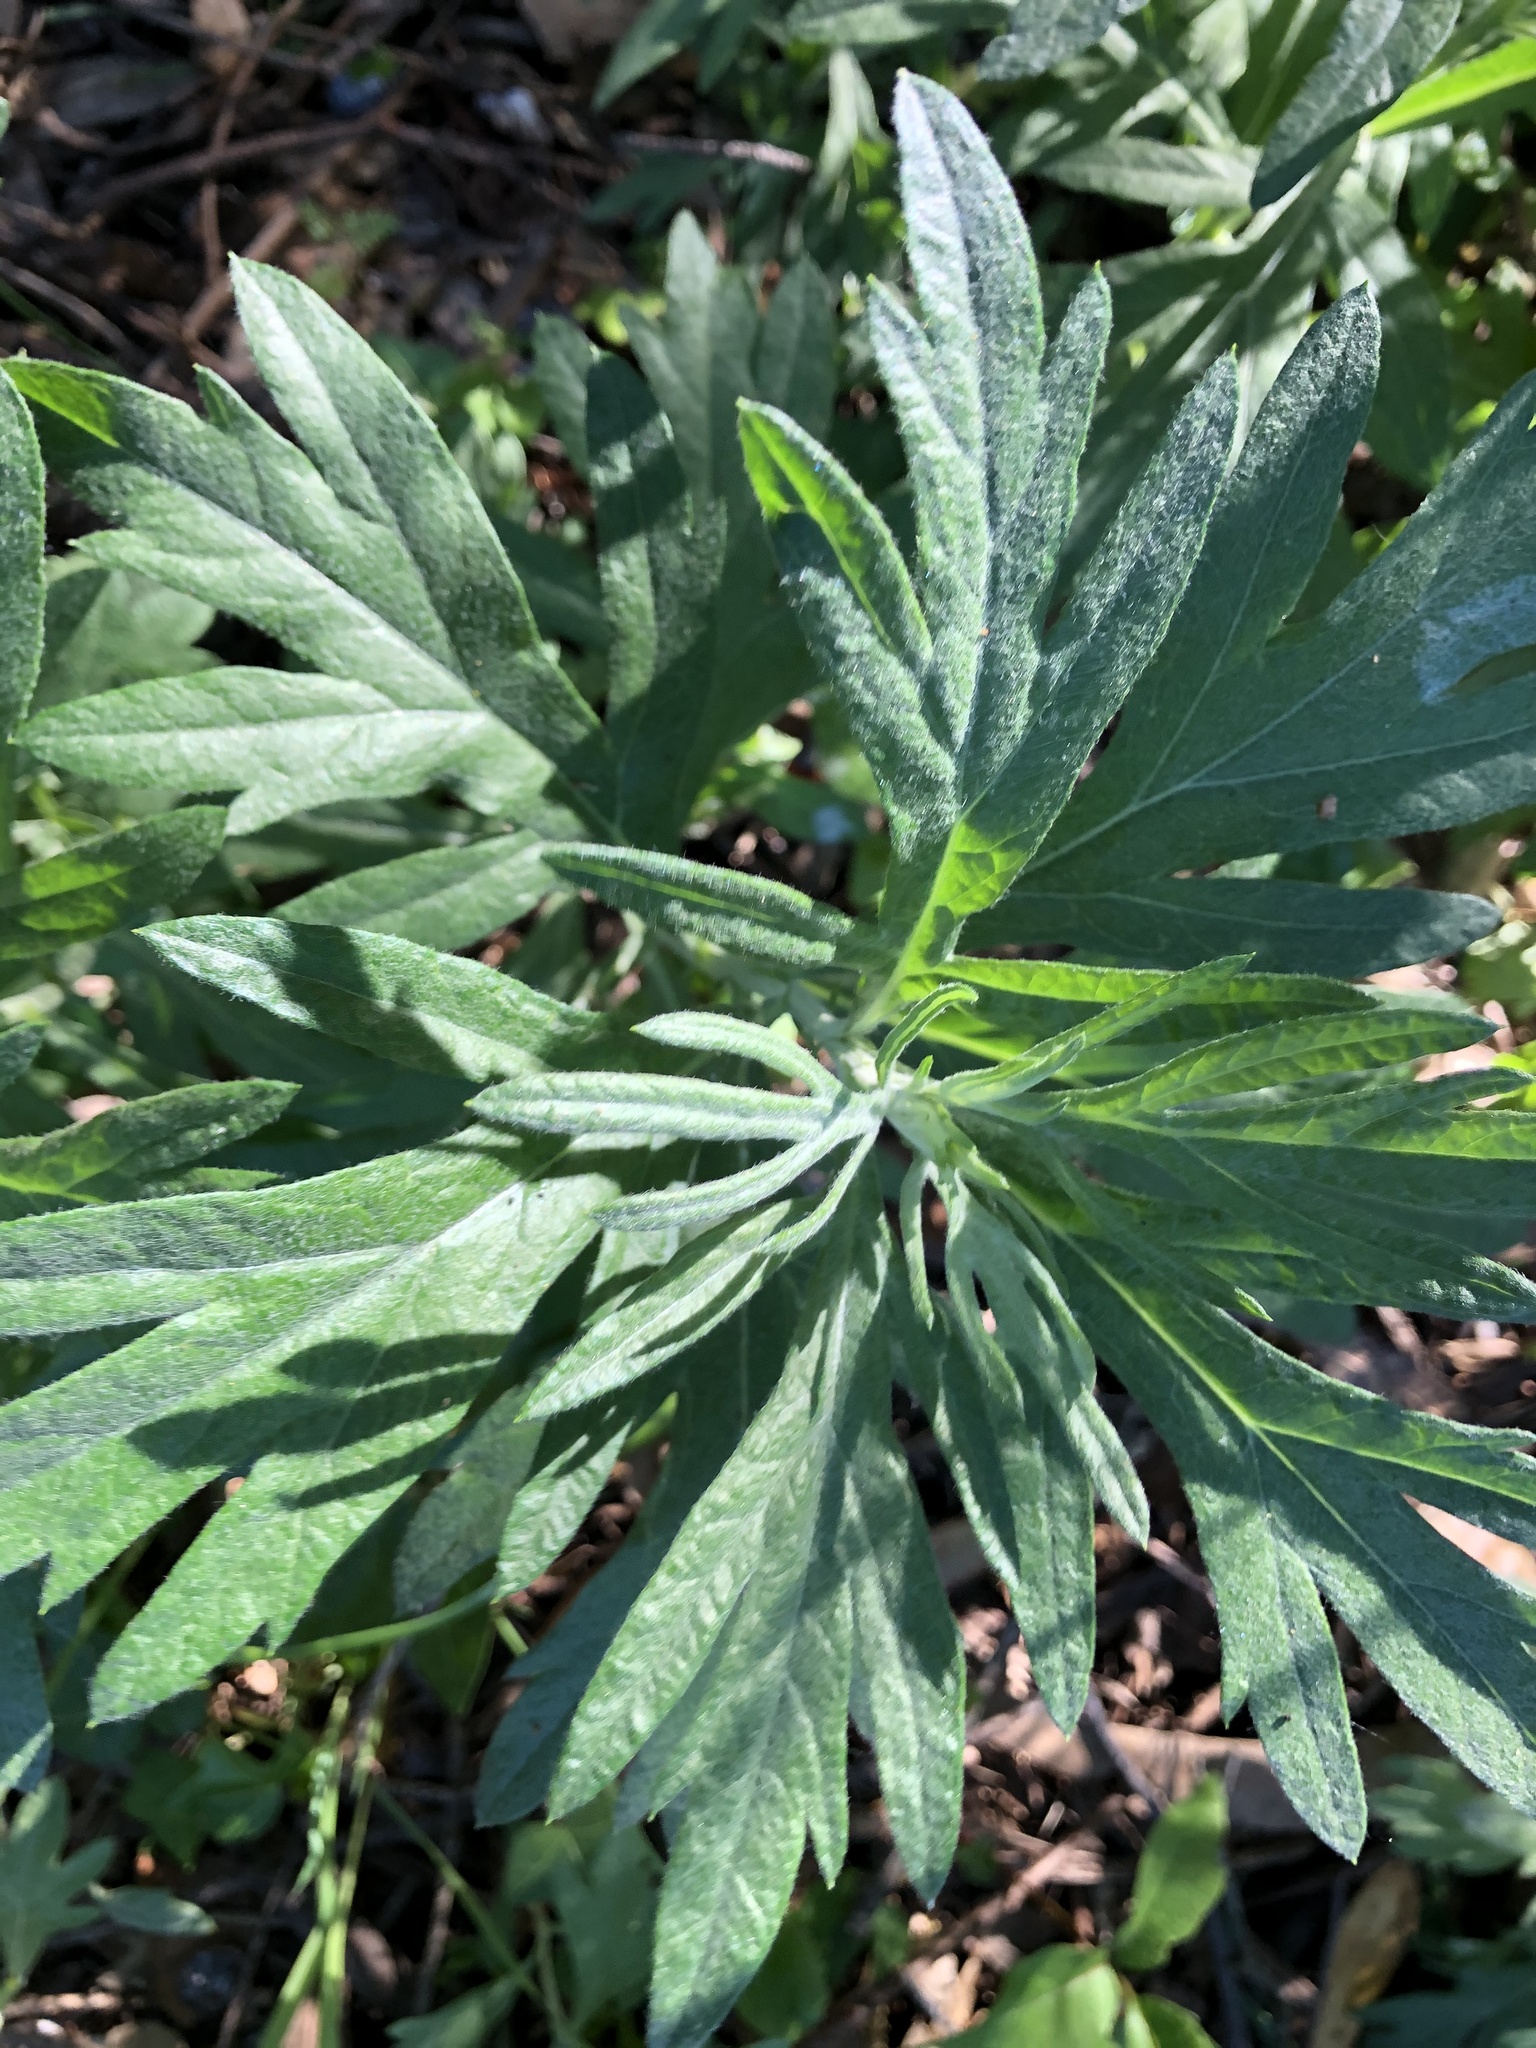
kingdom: Plantae
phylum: Tracheophyta
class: Magnoliopsida
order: Asterales
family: Asteraceae
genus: Artemisia
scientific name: Artemisia douglasiana
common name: Northwest mugwort
